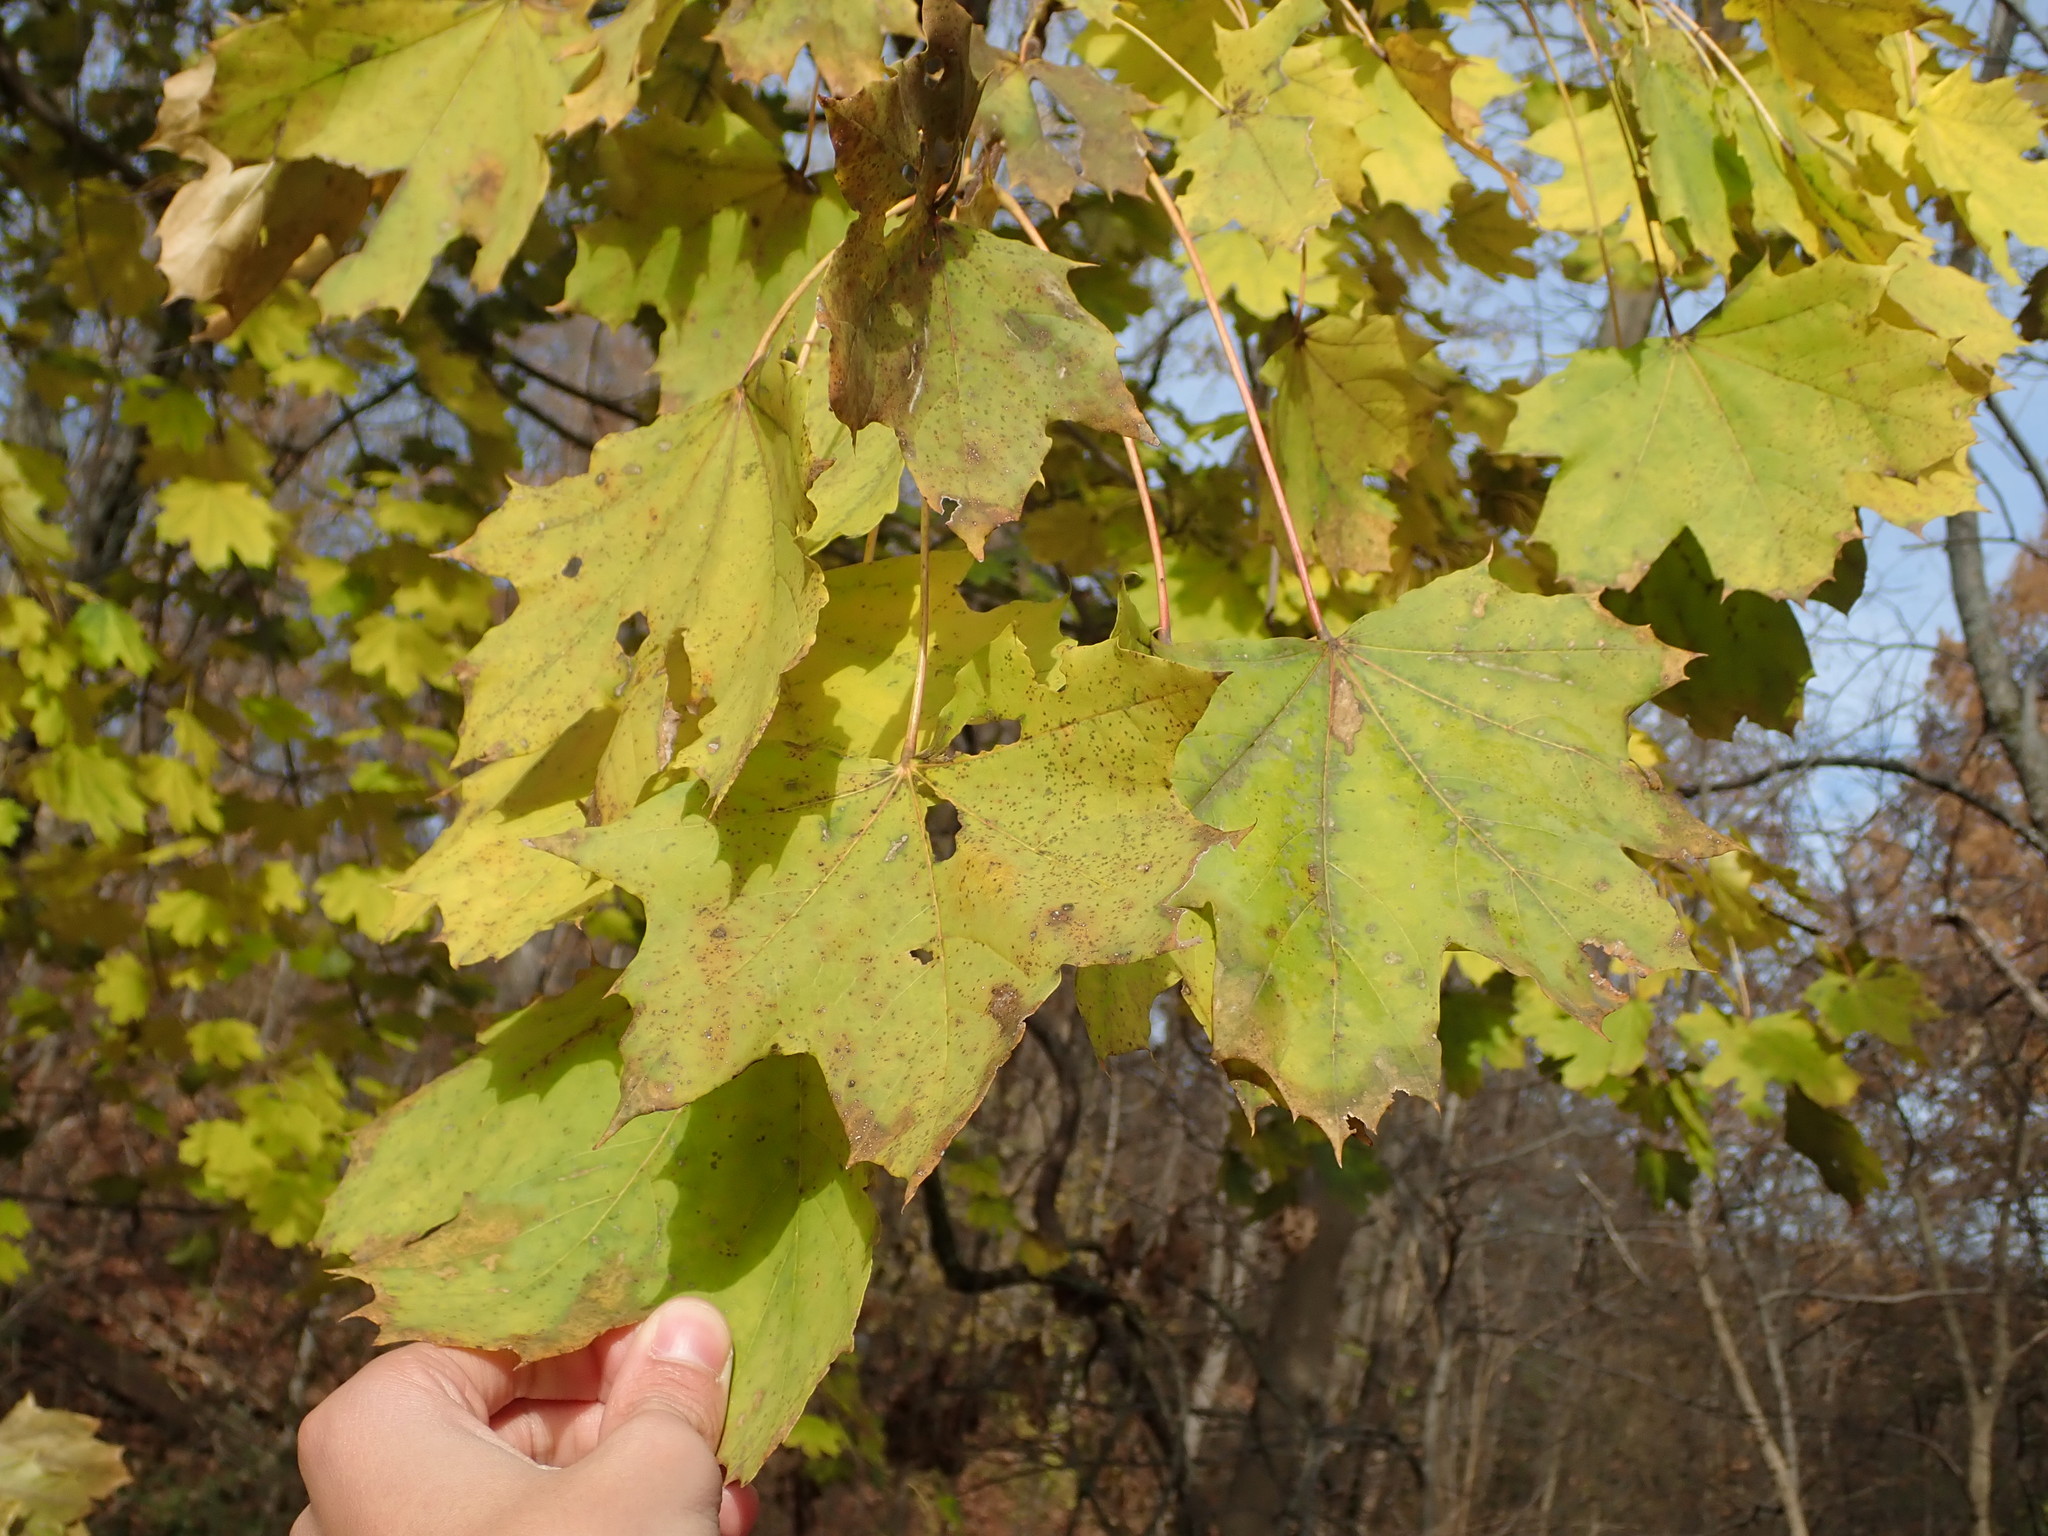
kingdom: Plantae
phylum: Tracheophyta
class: Magnoliopsida
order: Sapindales
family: Sapindaceae
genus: Acer
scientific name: Acer platanoides
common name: Norway maple
